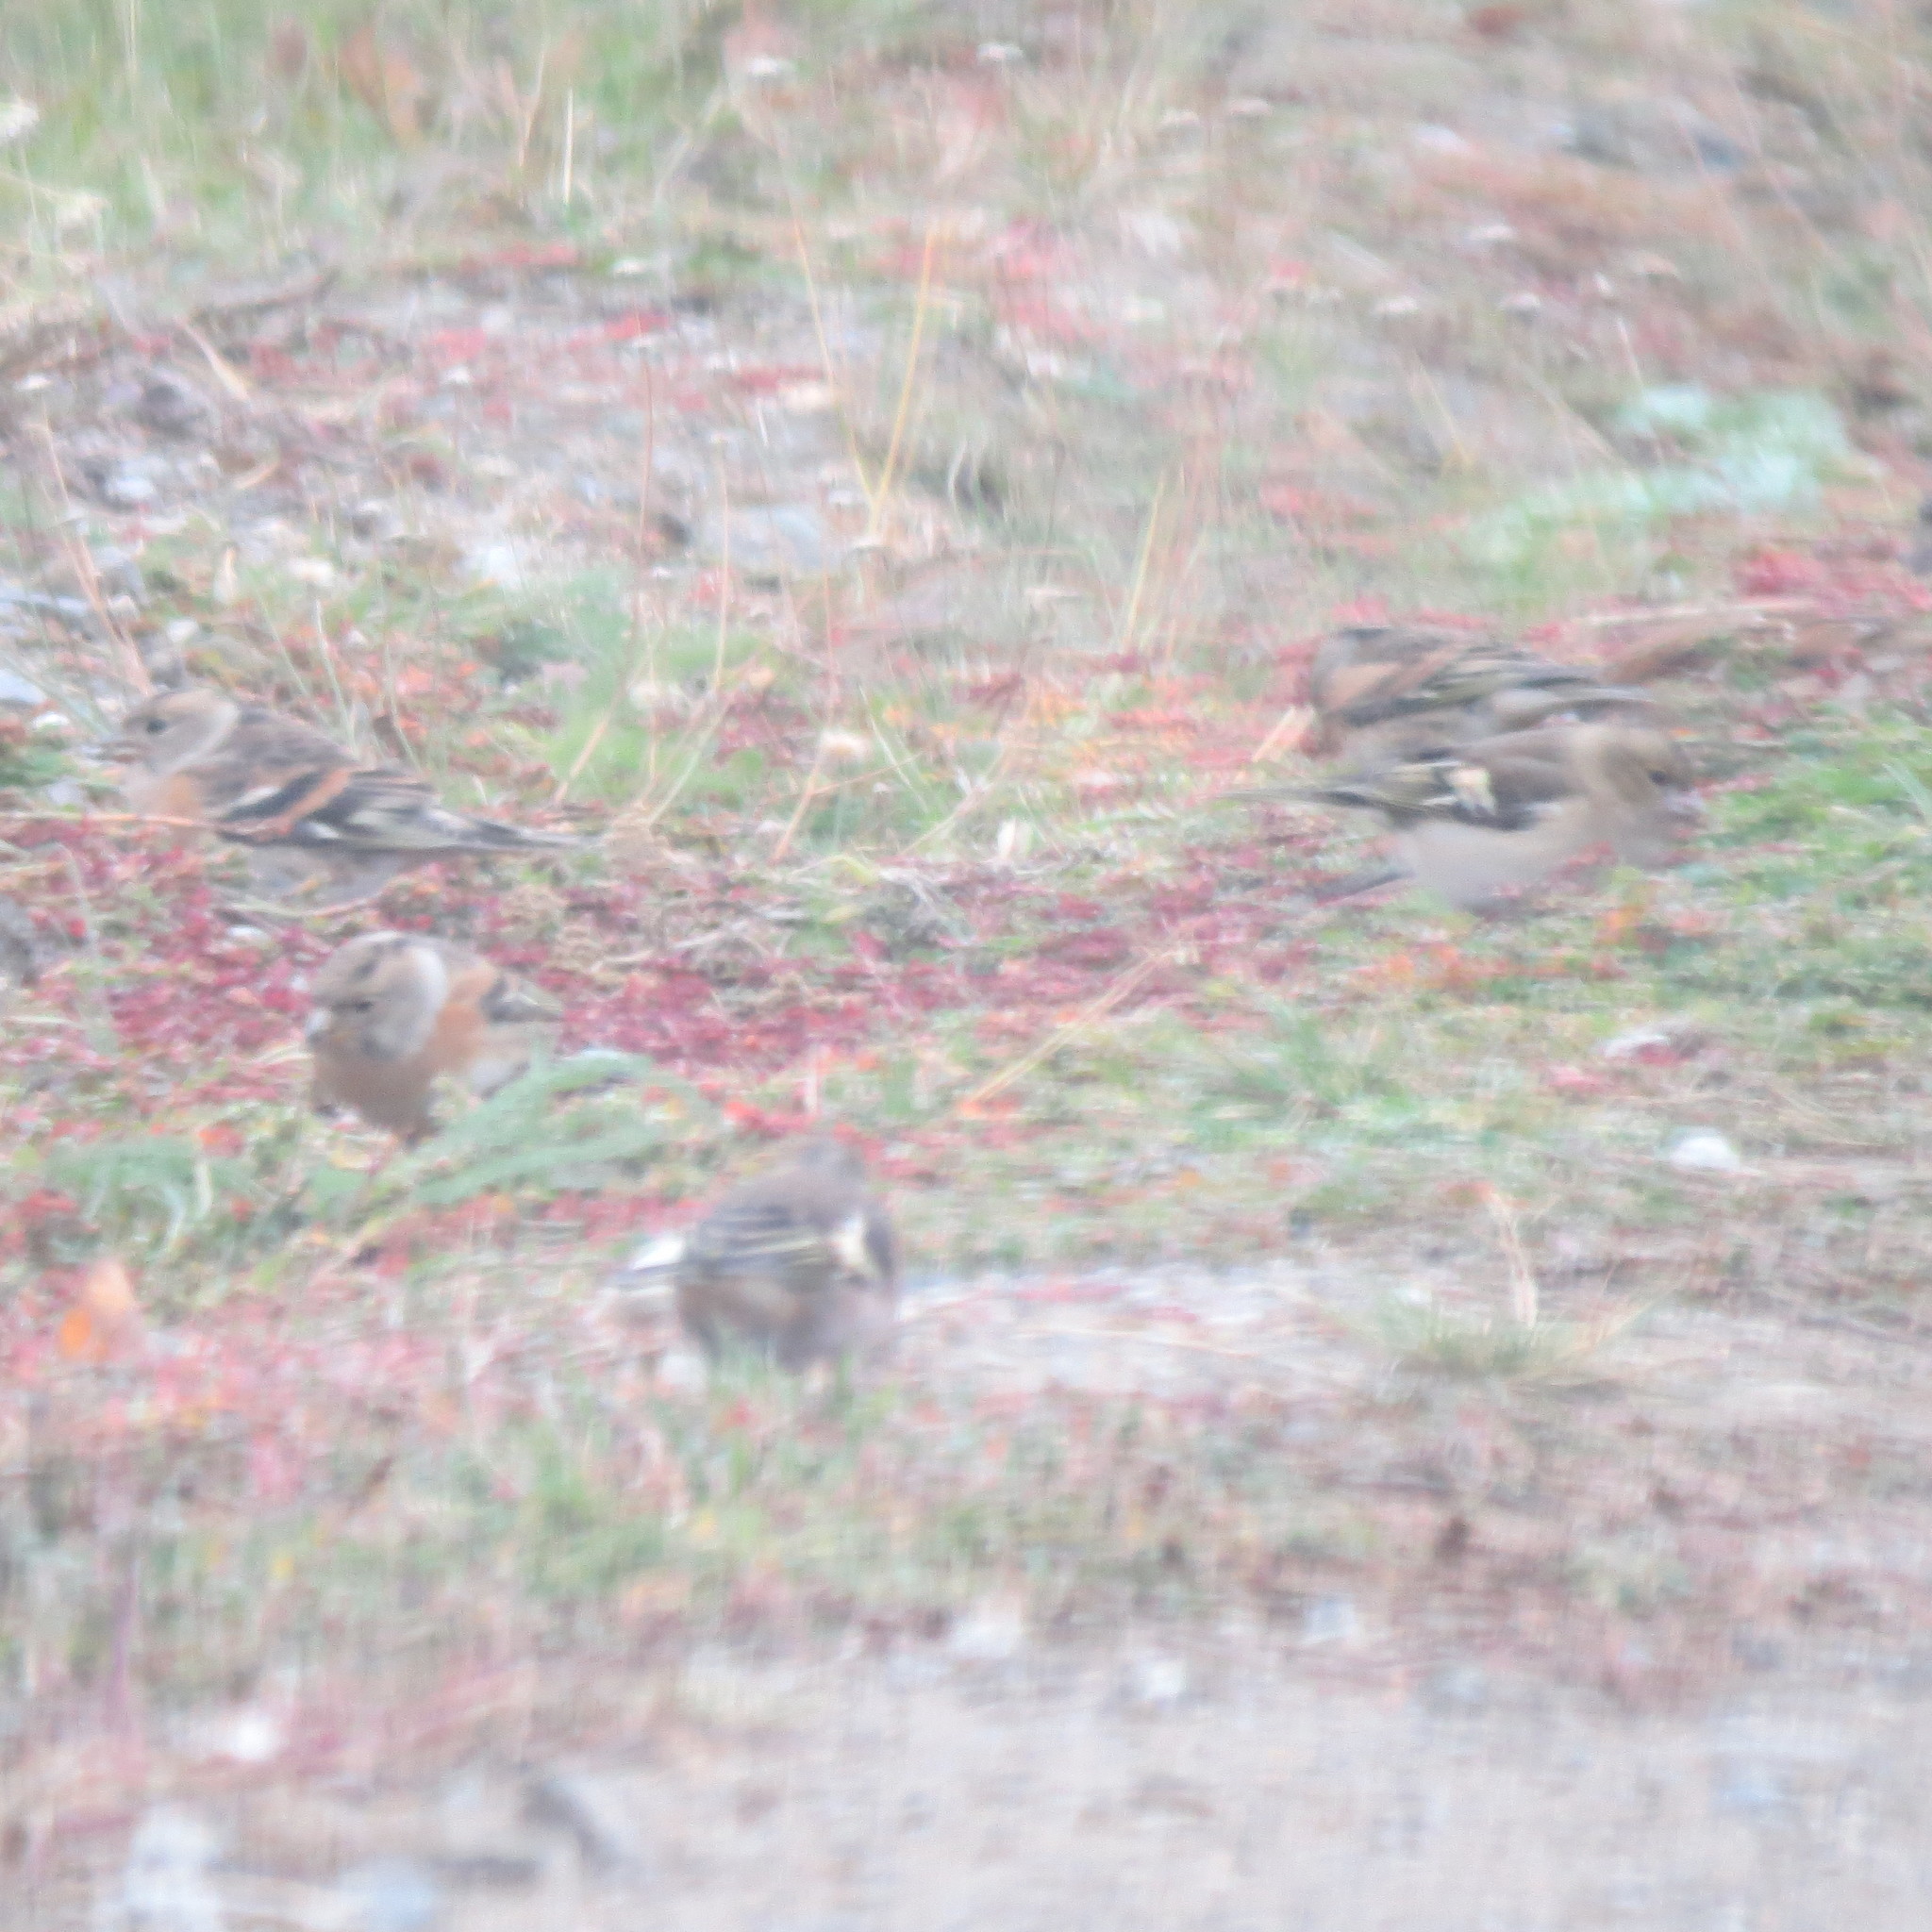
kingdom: Animalia
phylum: Chordata
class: Aves
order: Passeriformes
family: Fringillidae
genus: Fringilla
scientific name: Fringilla coelebs
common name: Common chaffinch
